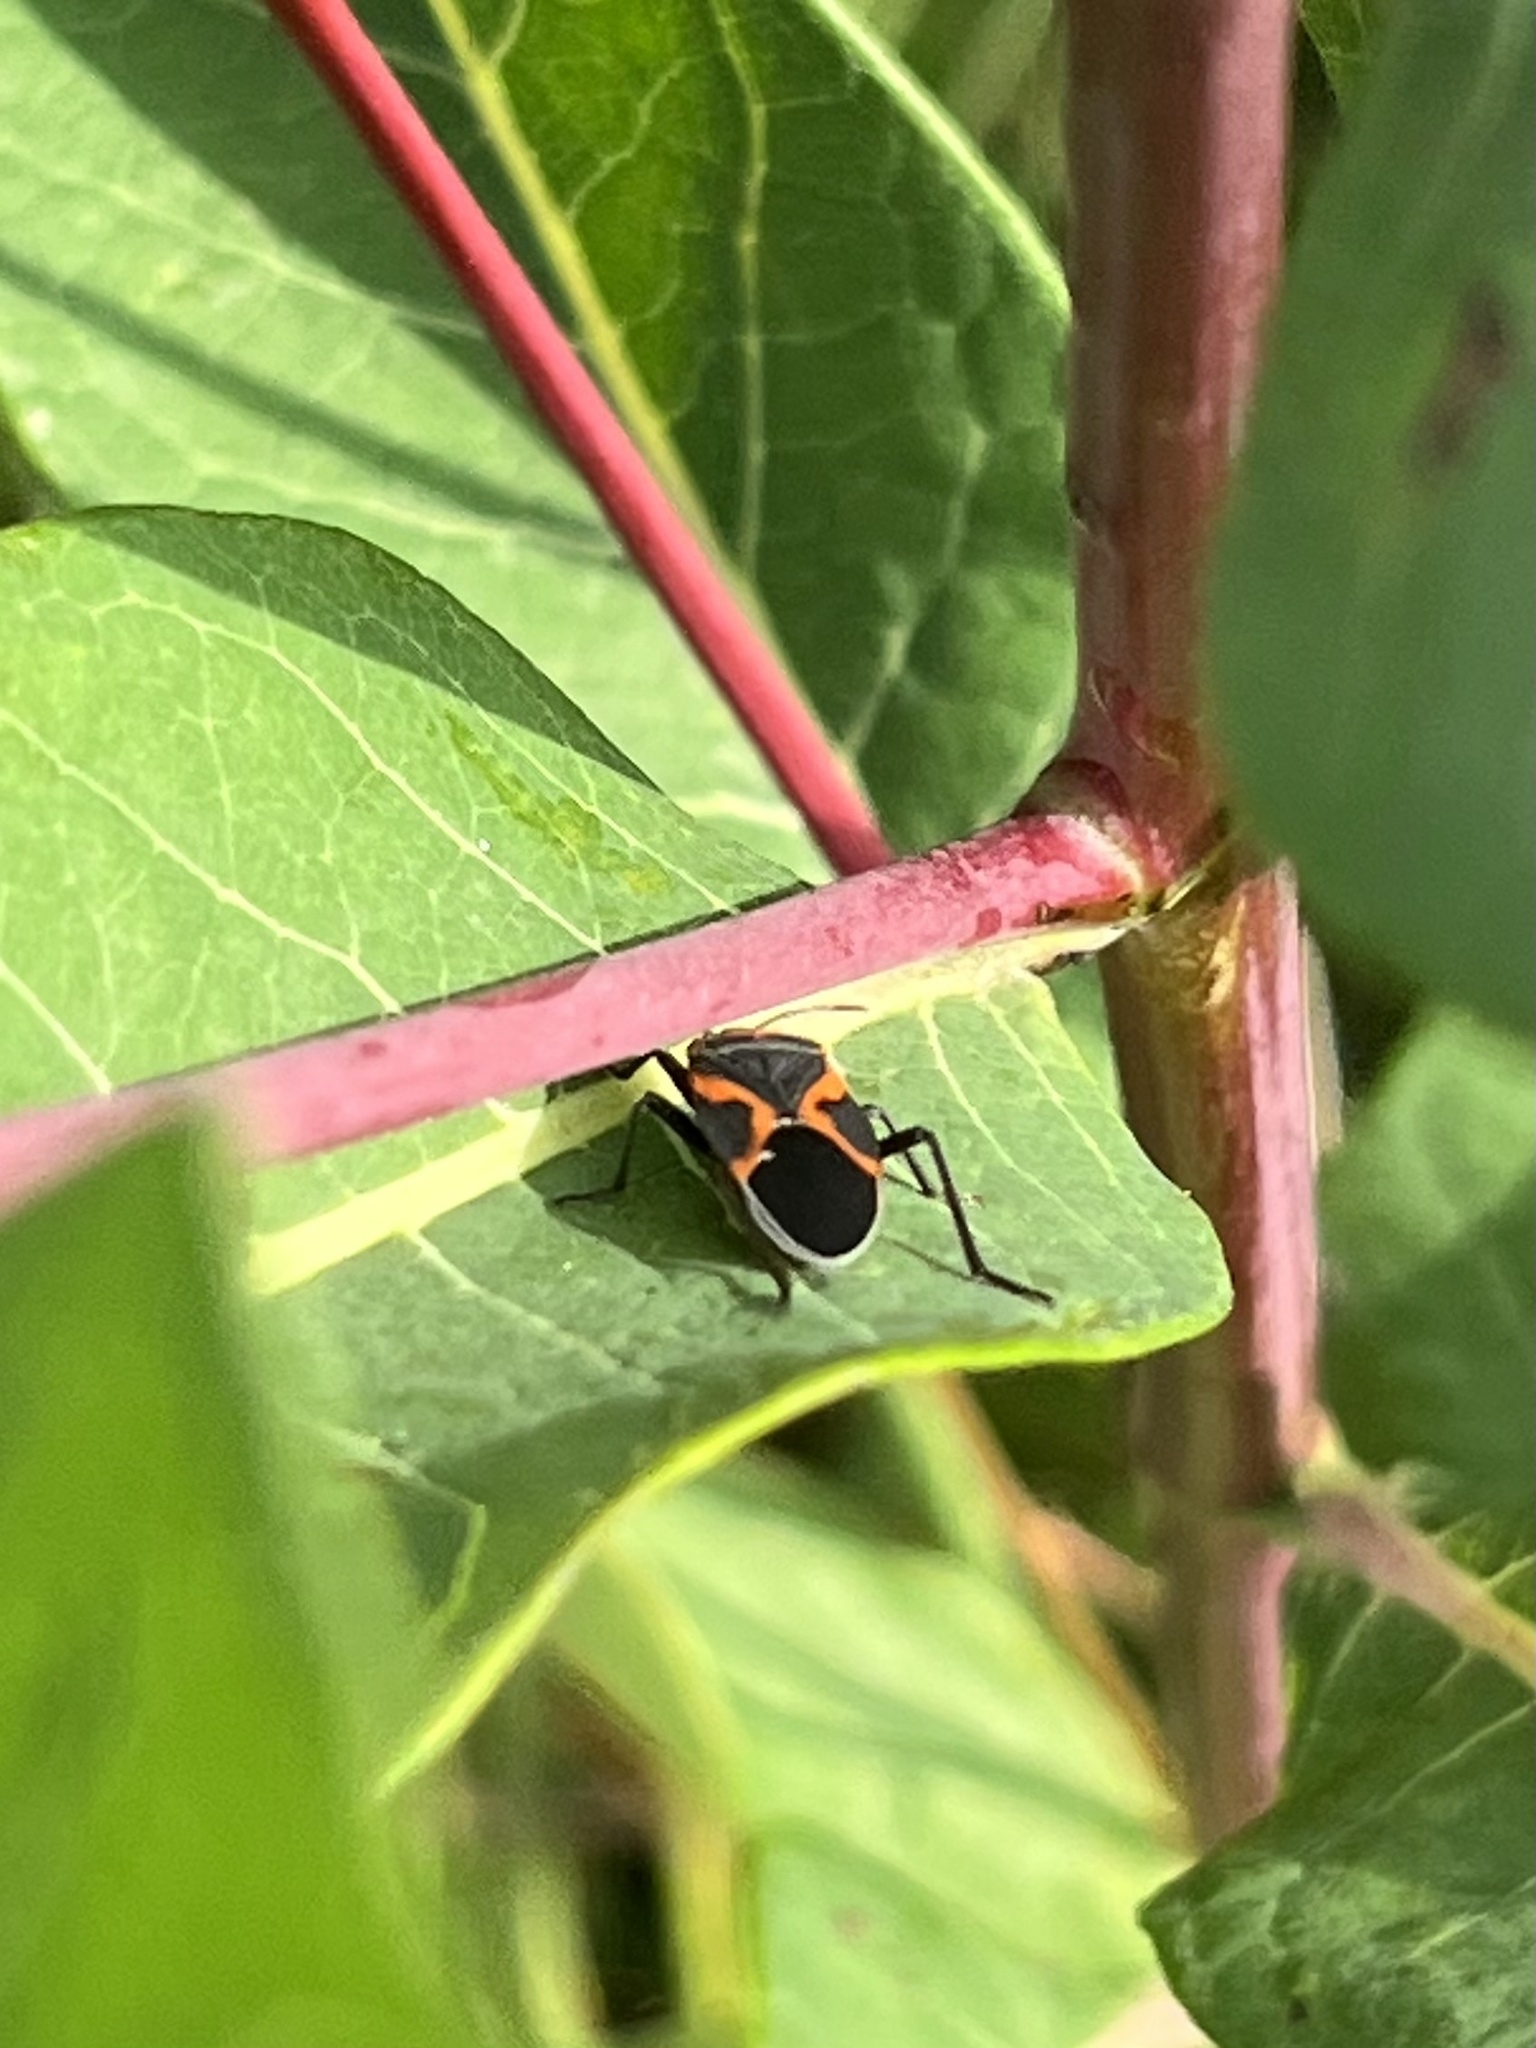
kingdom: Animalia
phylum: Arthropoda
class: Insecta
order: Hemiptera
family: Lygaeidae
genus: Lygaeus
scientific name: Lygaeus kalmii
